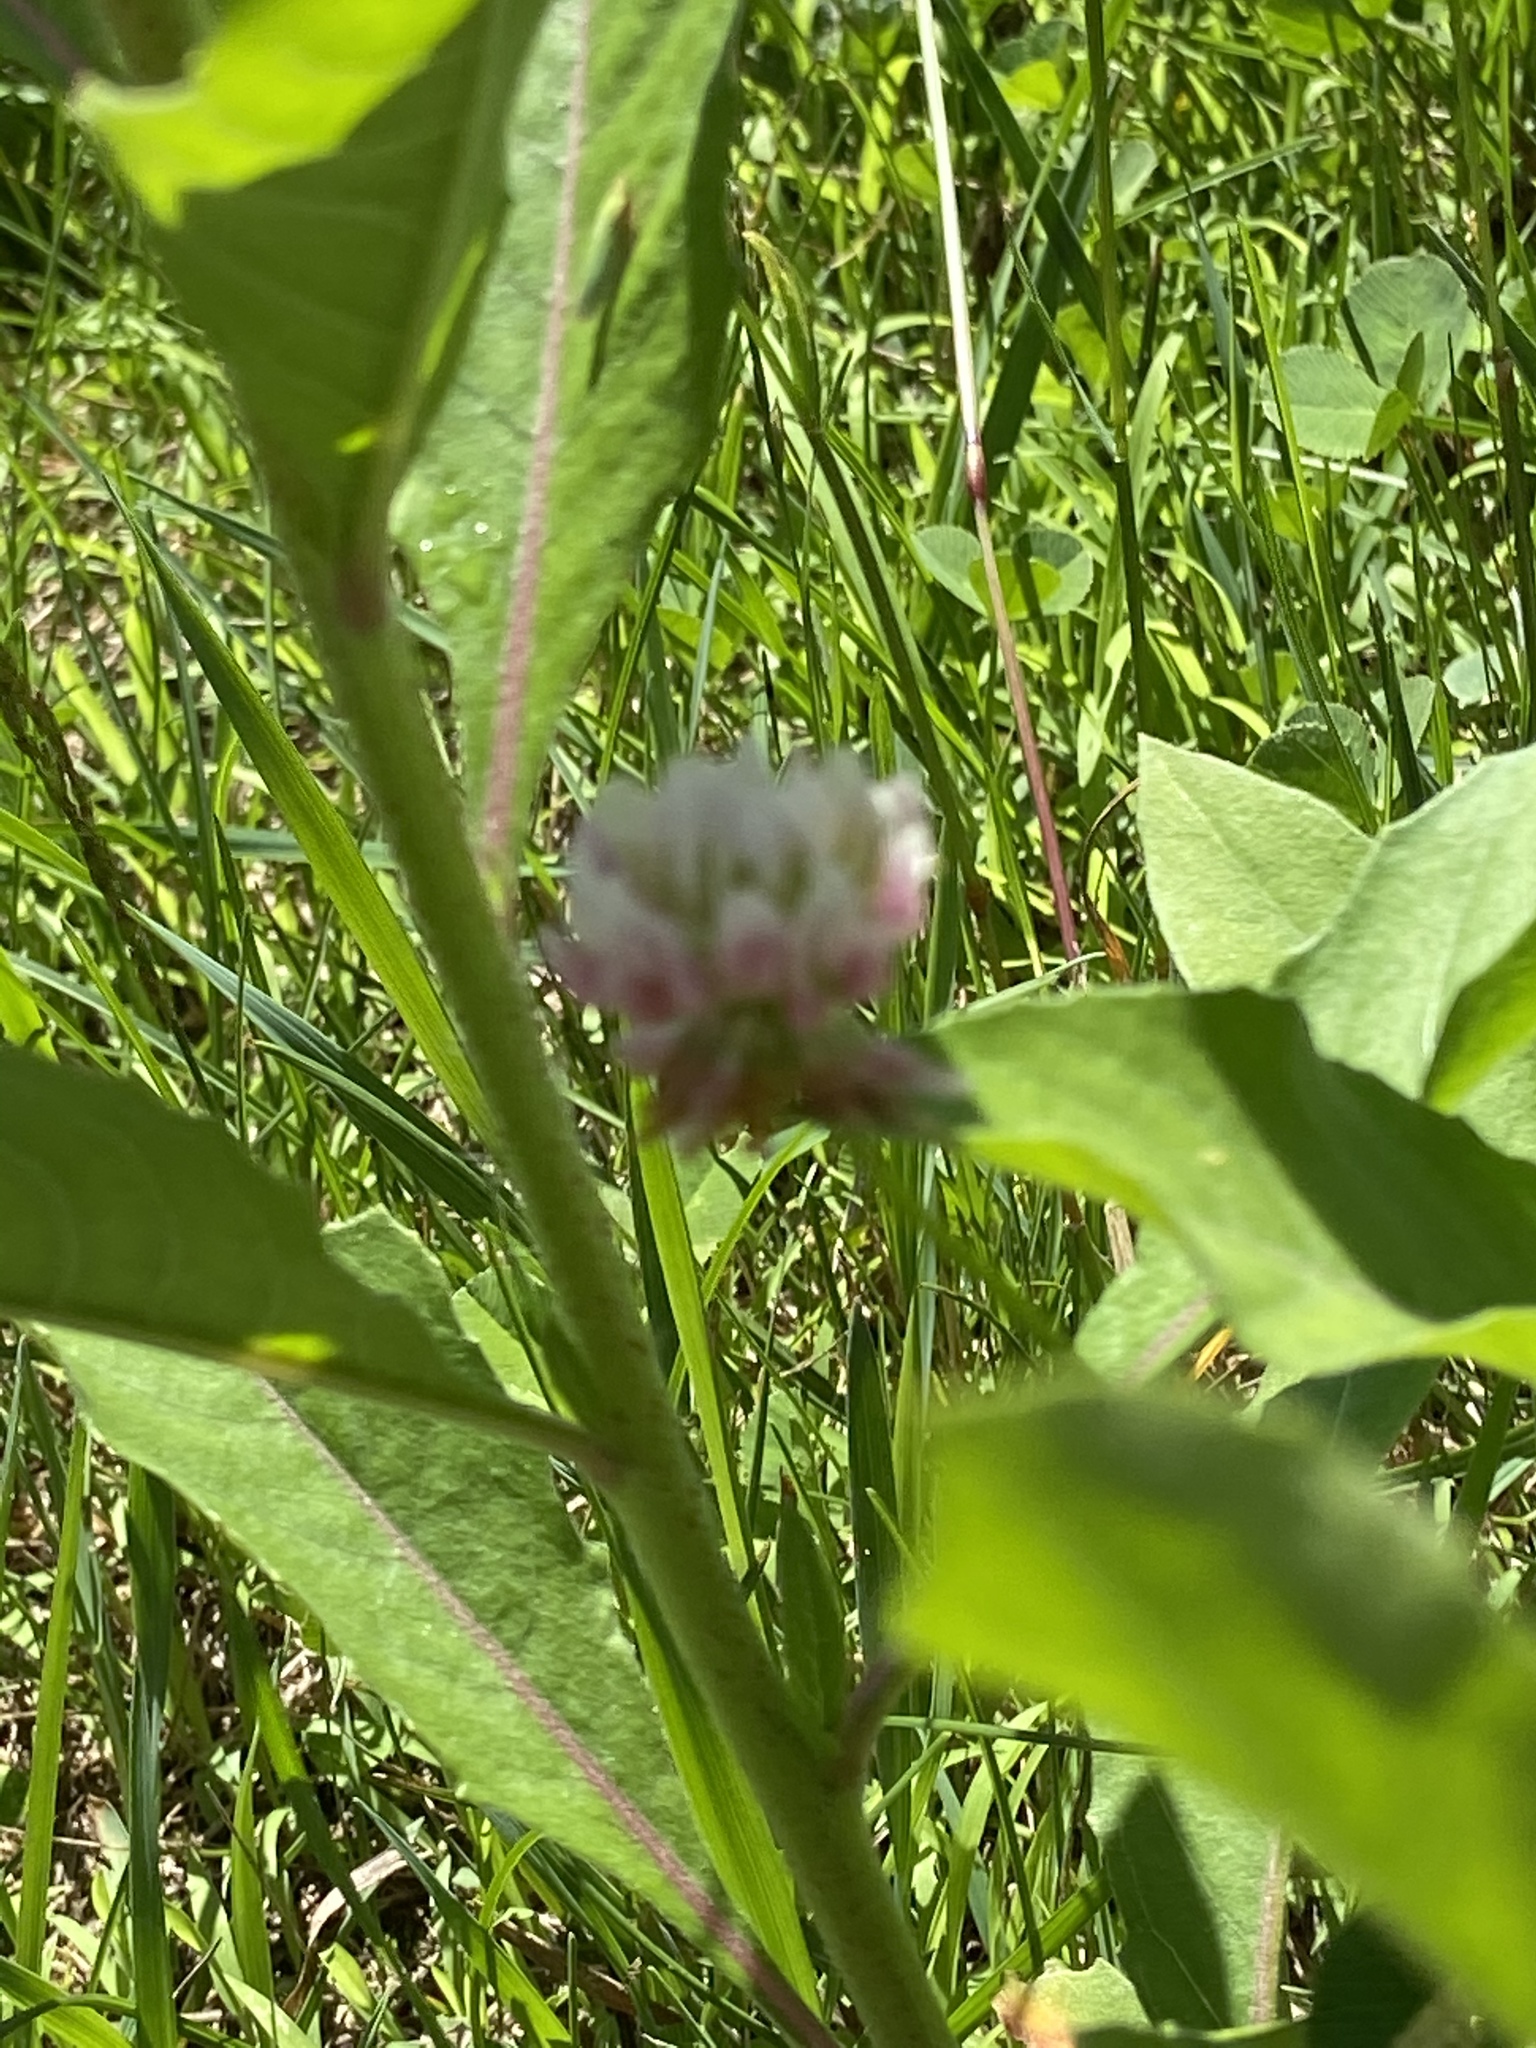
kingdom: Plantae
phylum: Tracheophyta
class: Magnoliopsida
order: Fabales
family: Fabaceae
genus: Trifolium
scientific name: Trifolium hybridum
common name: Alsike clover
